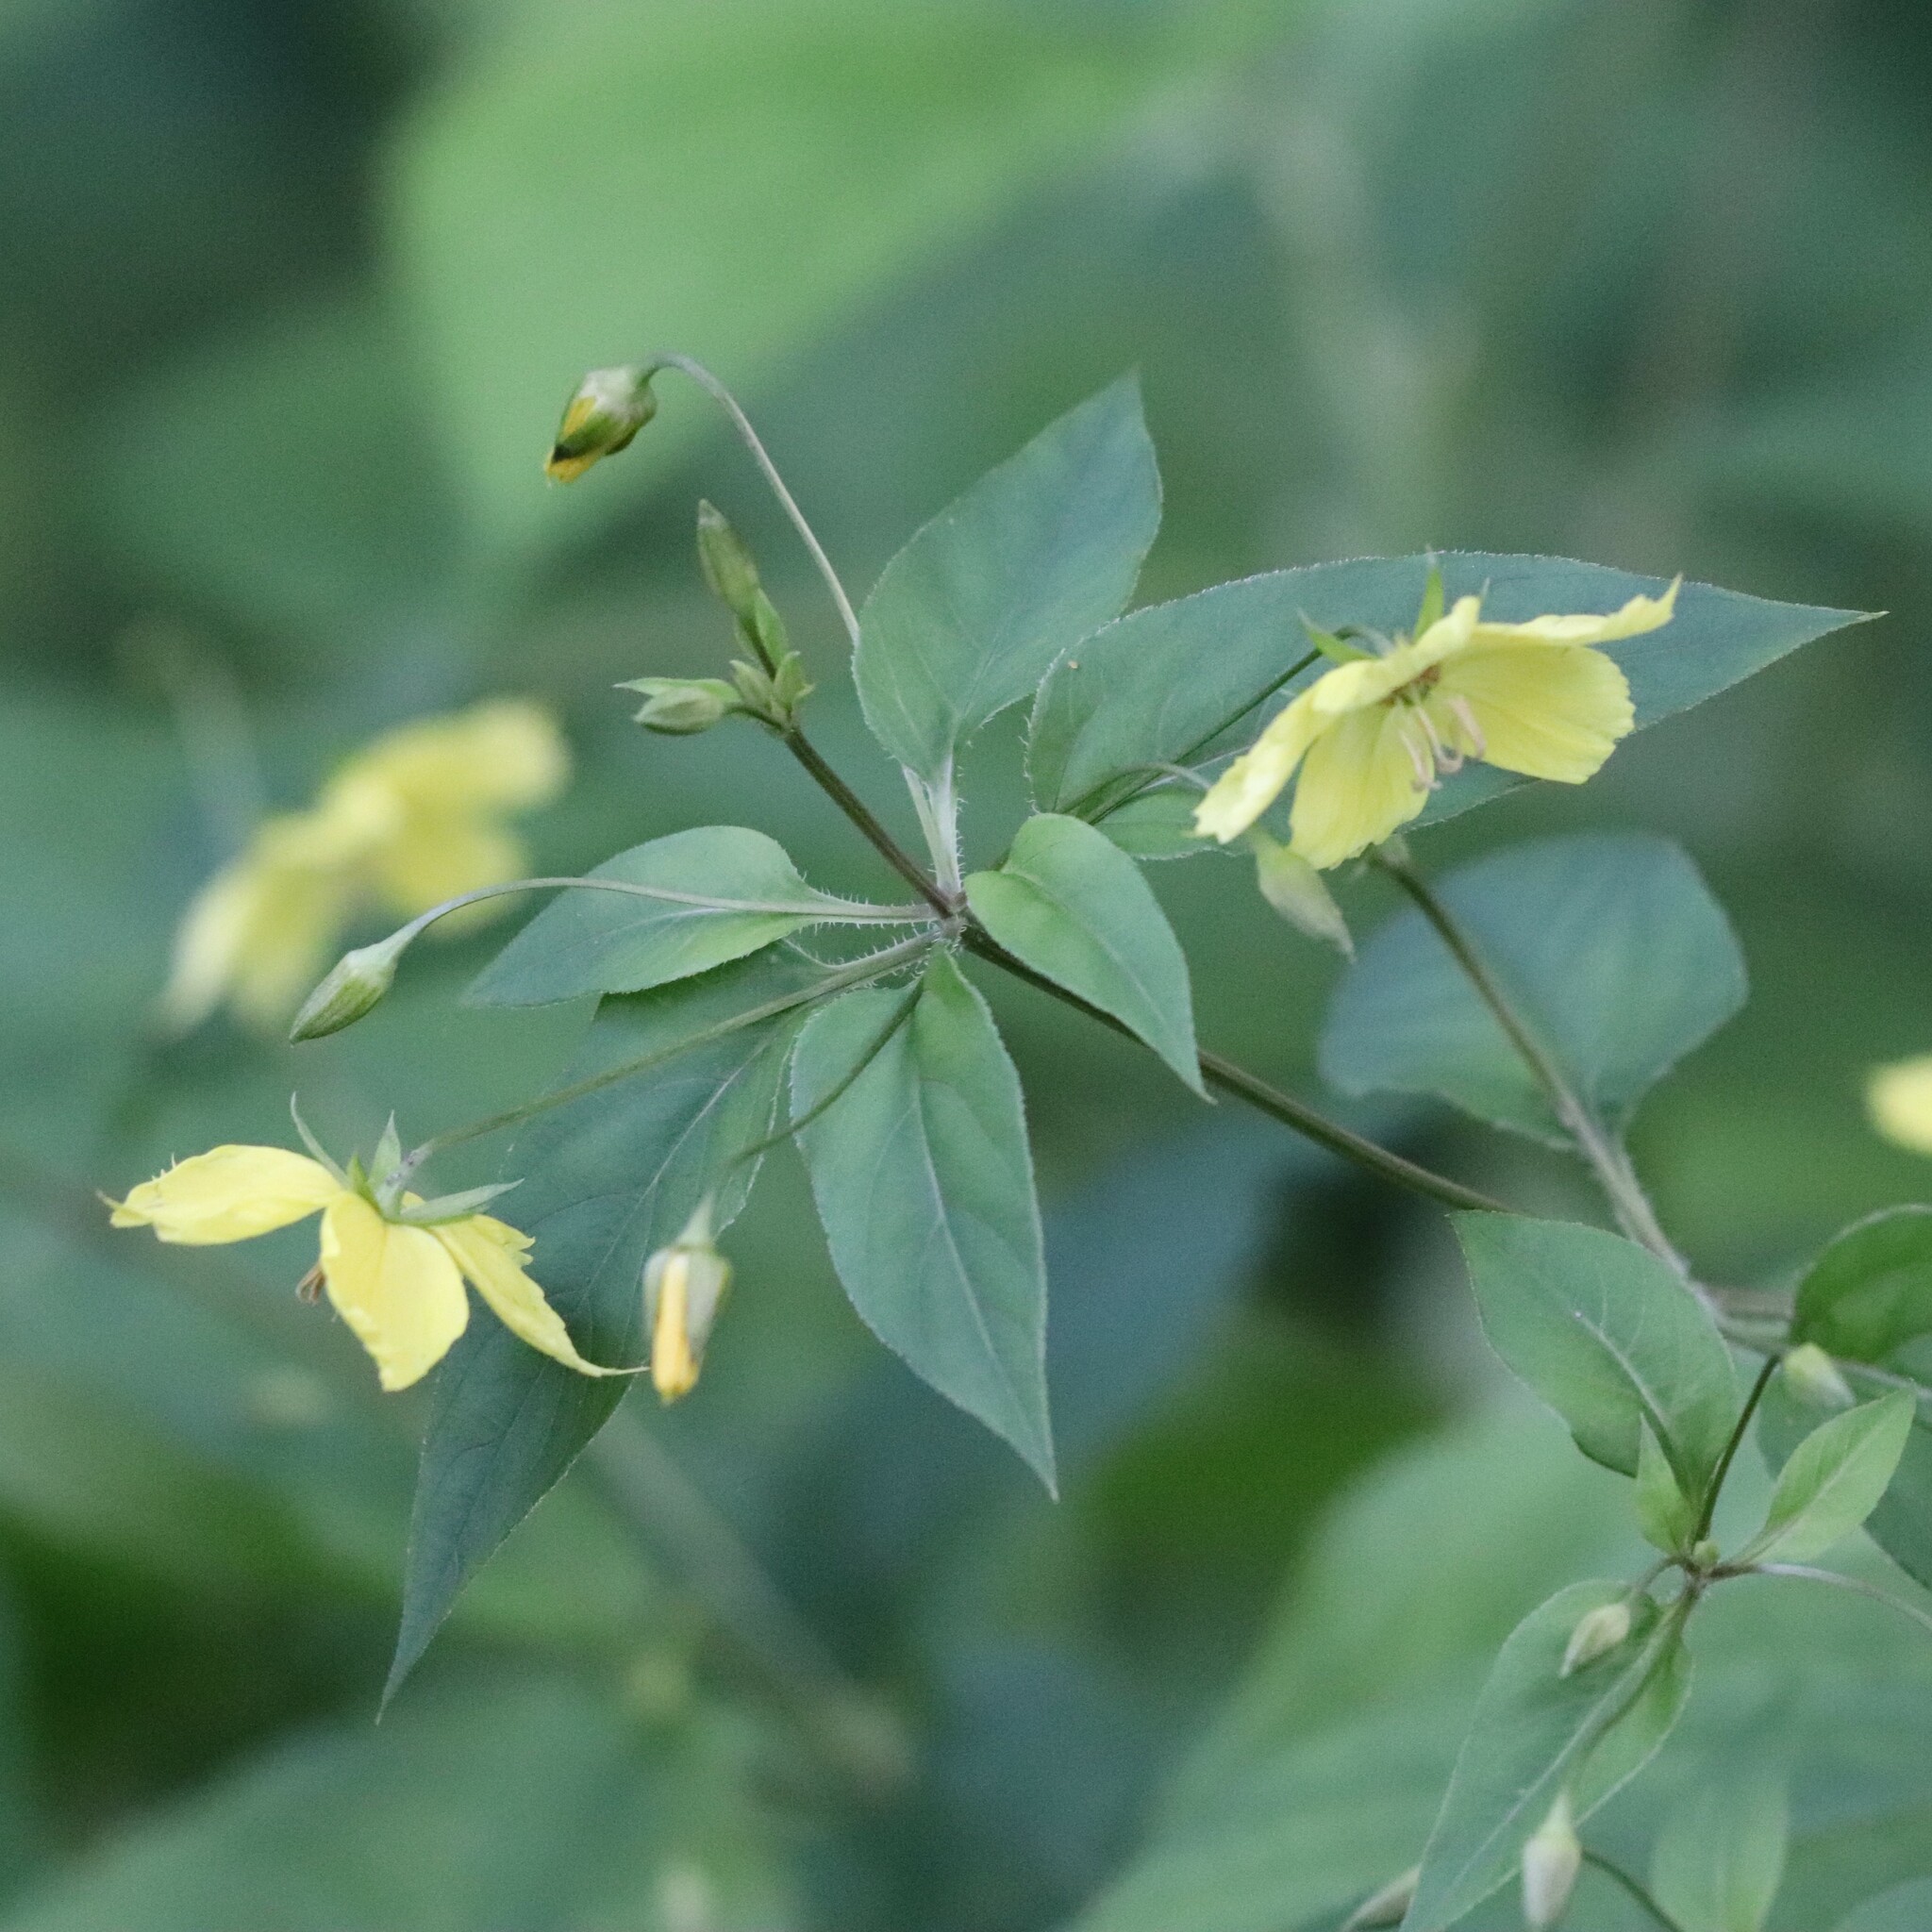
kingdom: Plantae
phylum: Tracheophyta
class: Magnoliopsida
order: Ericales
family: Primulaceae
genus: Lysimachia
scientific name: Lysimachia ciliata
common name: Fringed loosestrife
